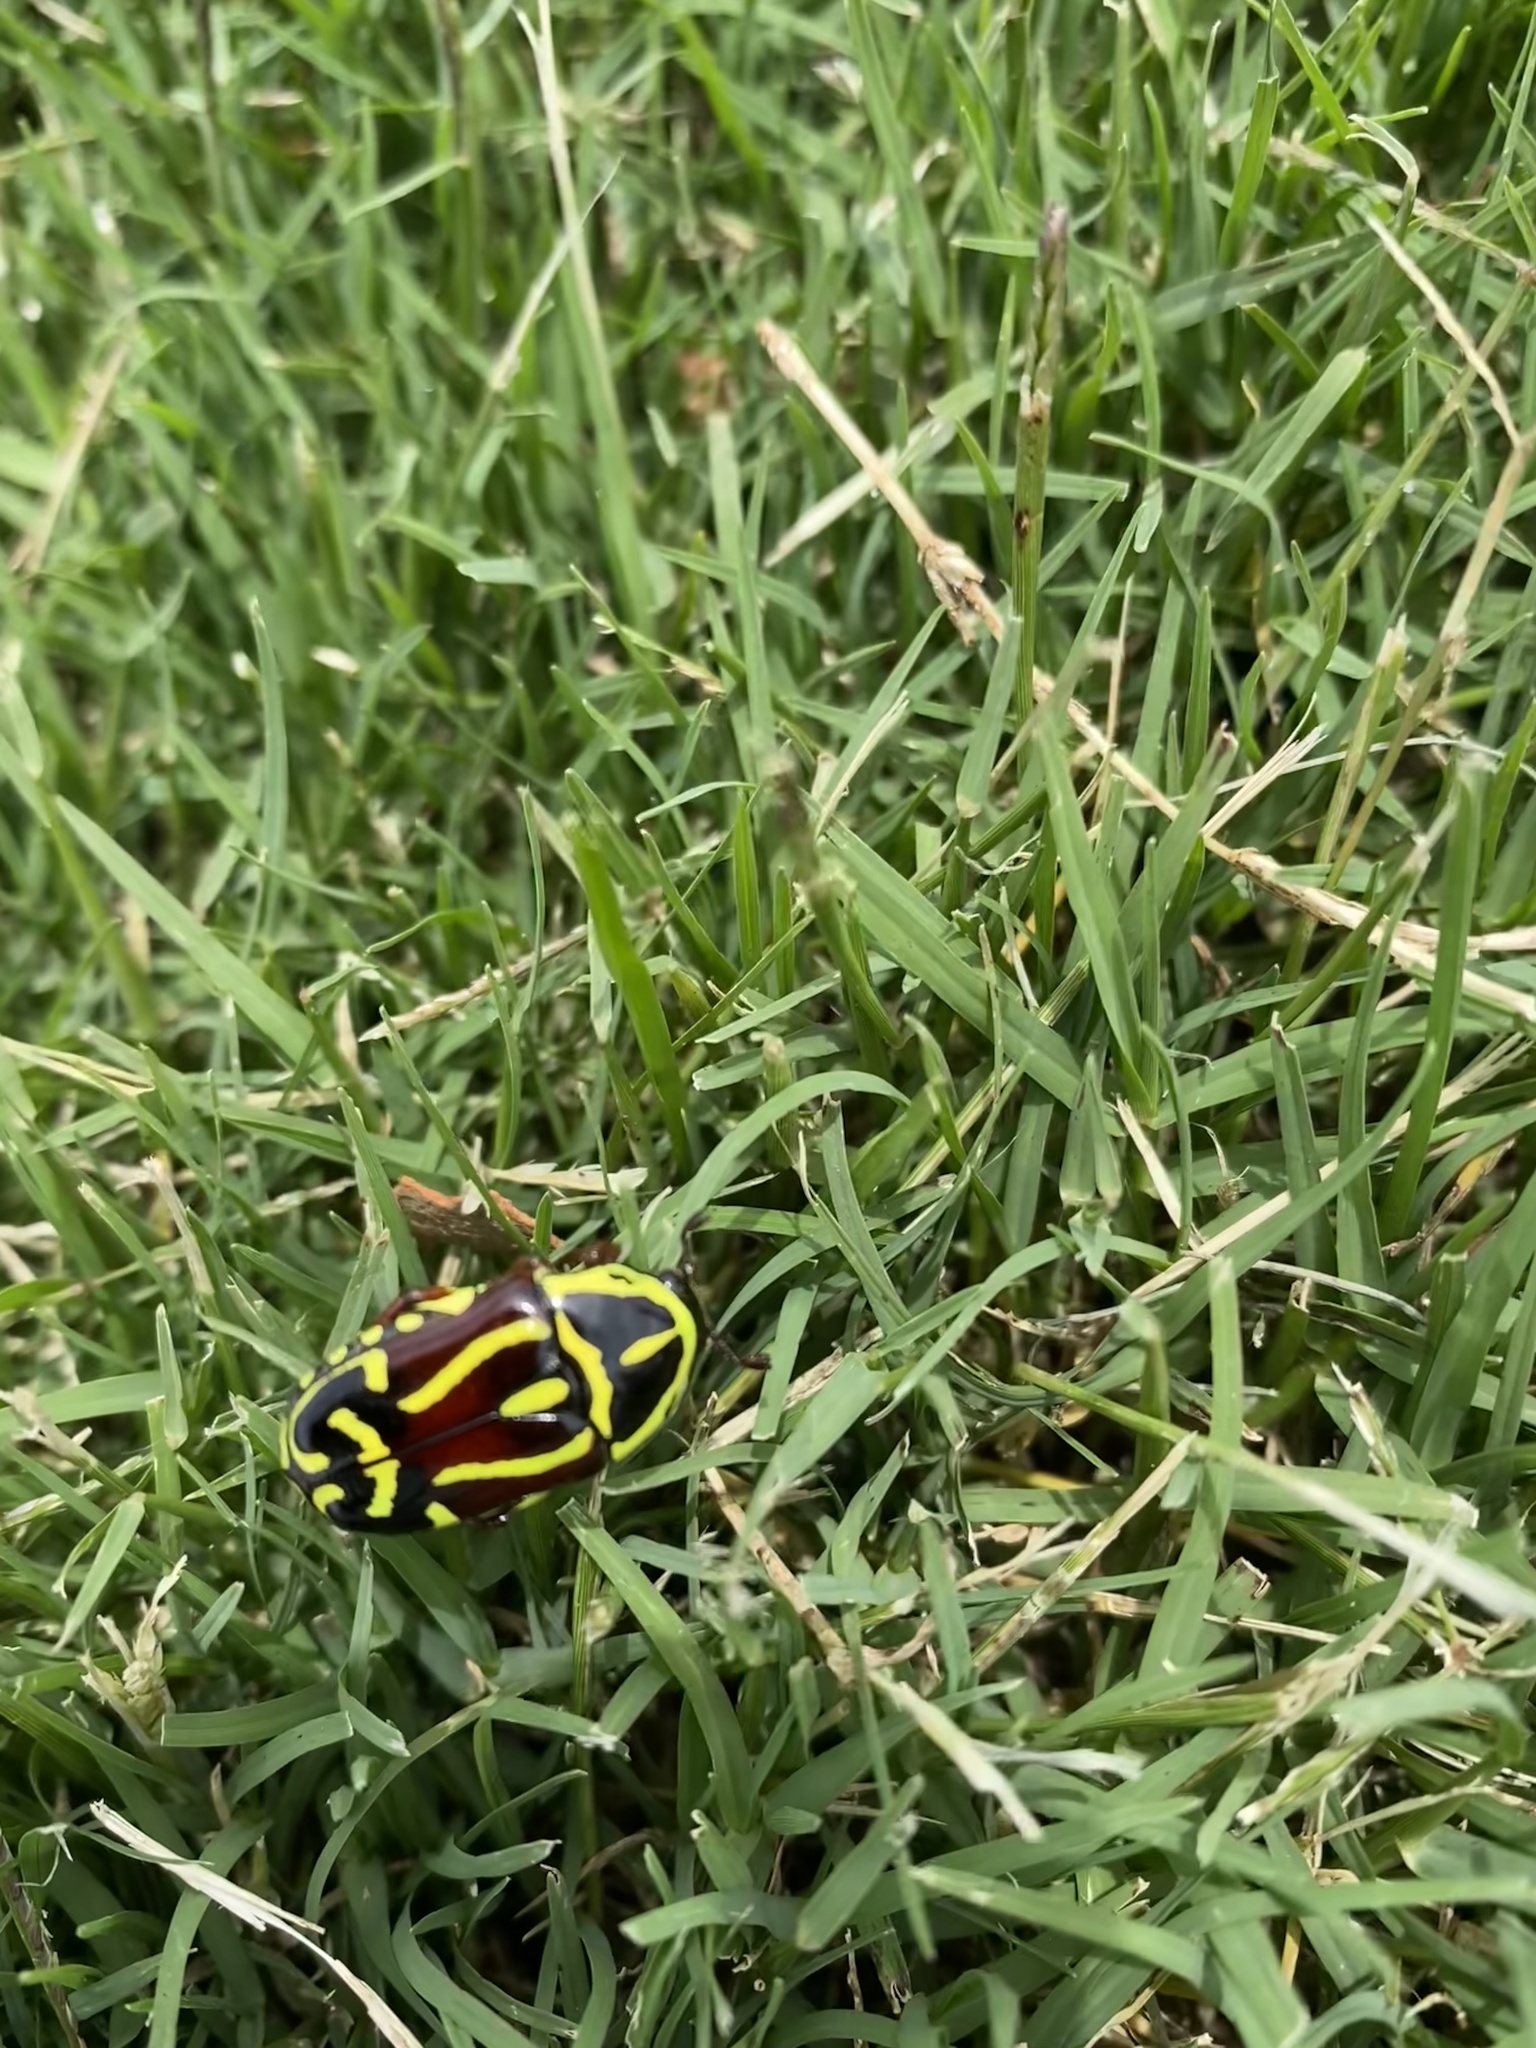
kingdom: Animalia
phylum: Arthropoda
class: Insecta
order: Coleoptera
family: Scarabaeidae
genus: Eupoecila
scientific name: Eupoecila australasiae
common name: Fiddler beetle
